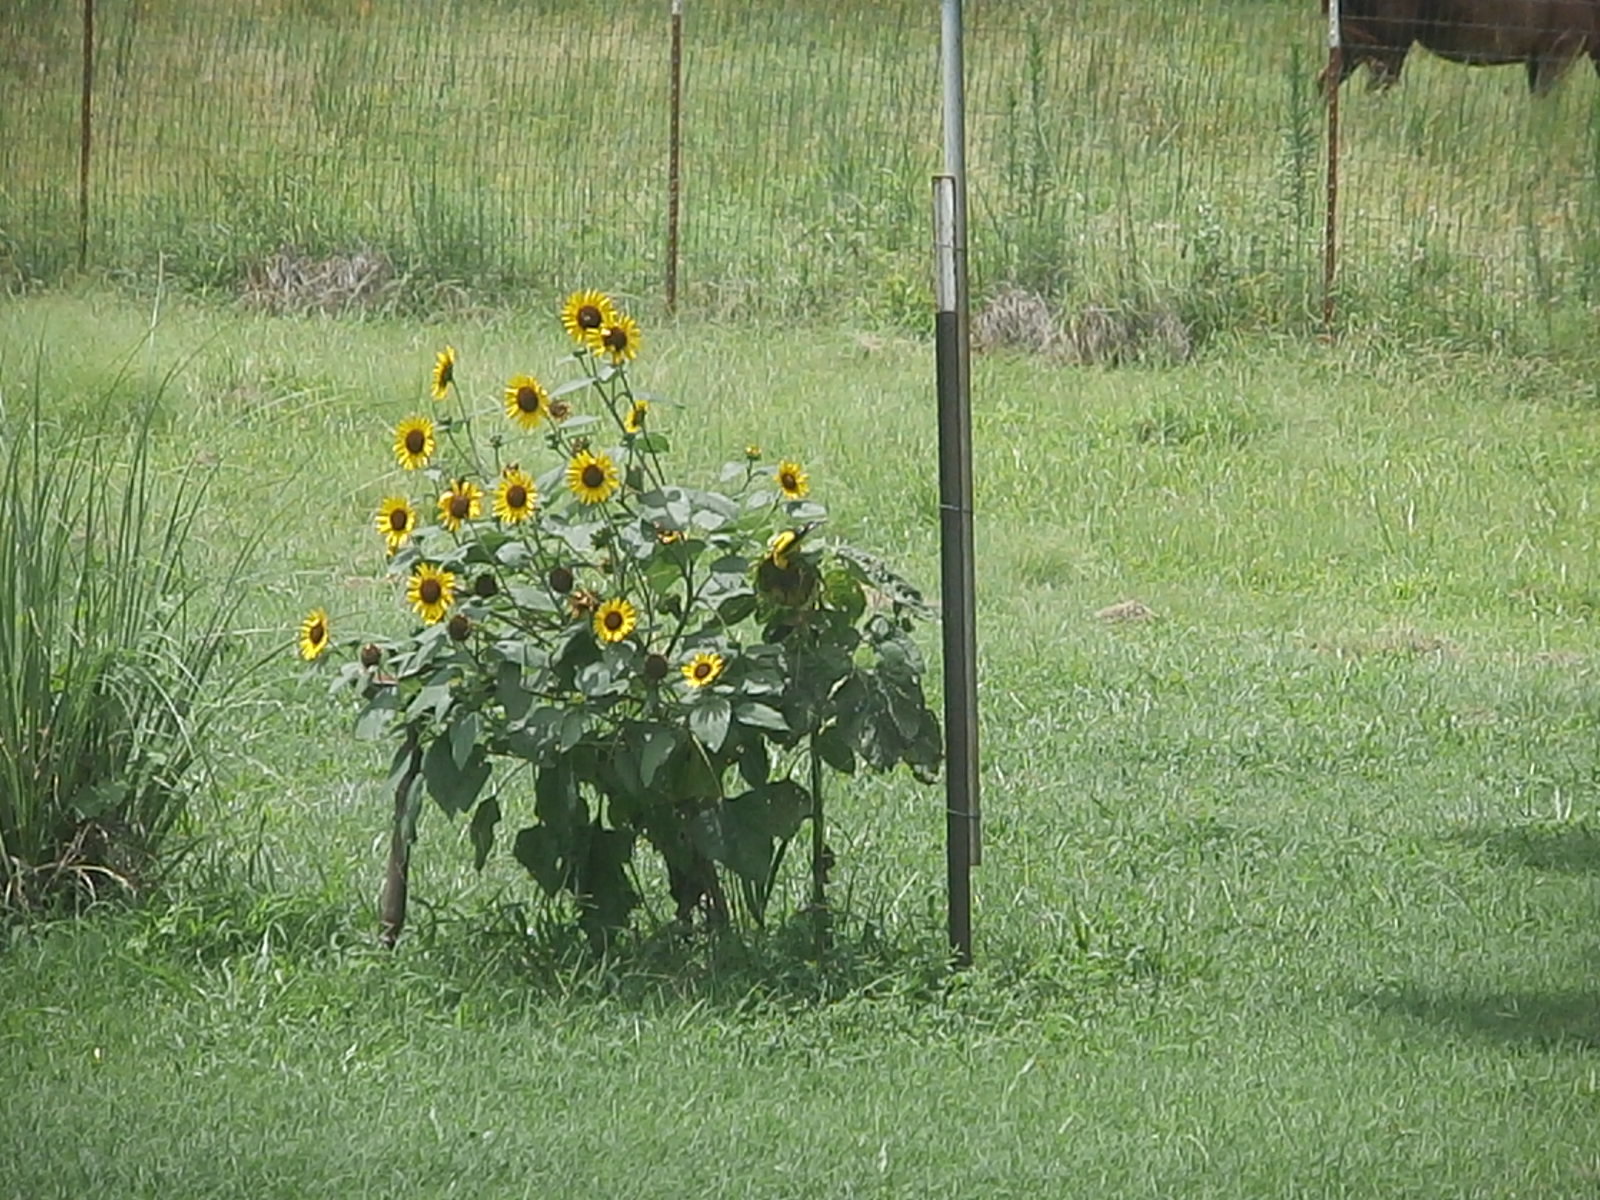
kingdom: Animalia
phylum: Chordata
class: Aves
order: Passeriformes
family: Fringillidae
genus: Spinus
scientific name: Spinus tristis
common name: American goldfinch
